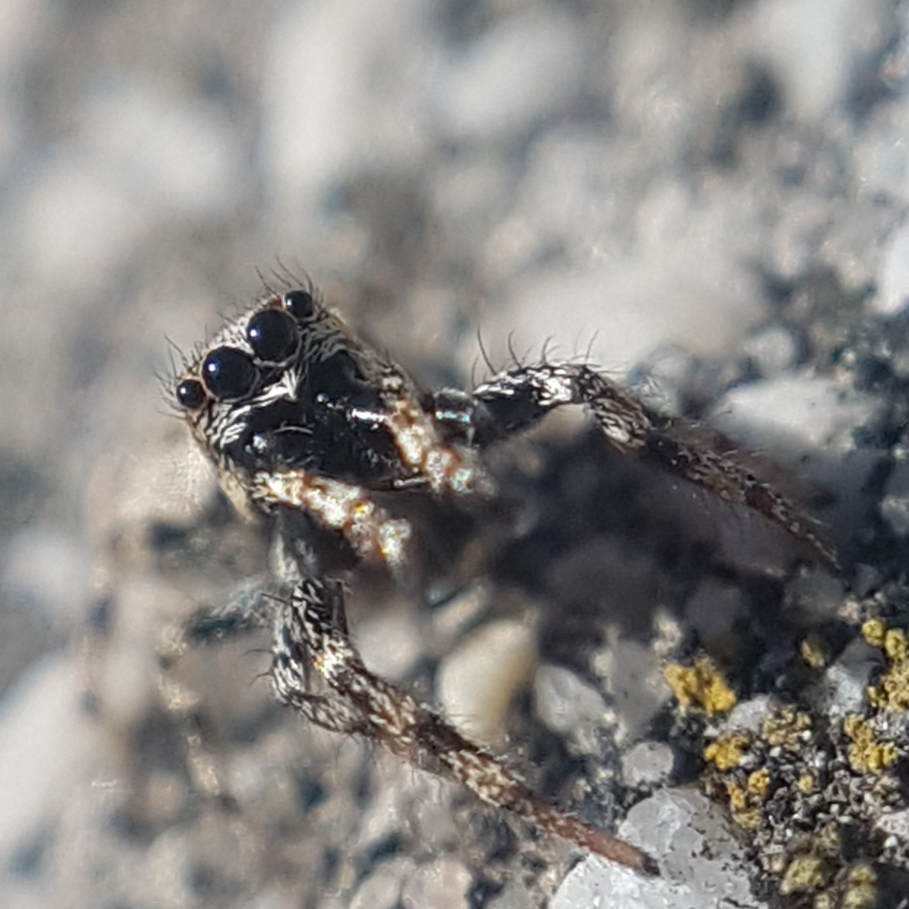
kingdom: Animalia
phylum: Arthropoda
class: Arachnida
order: Araneae
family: Salticidae
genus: Salticus
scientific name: Salticus mutabilis
